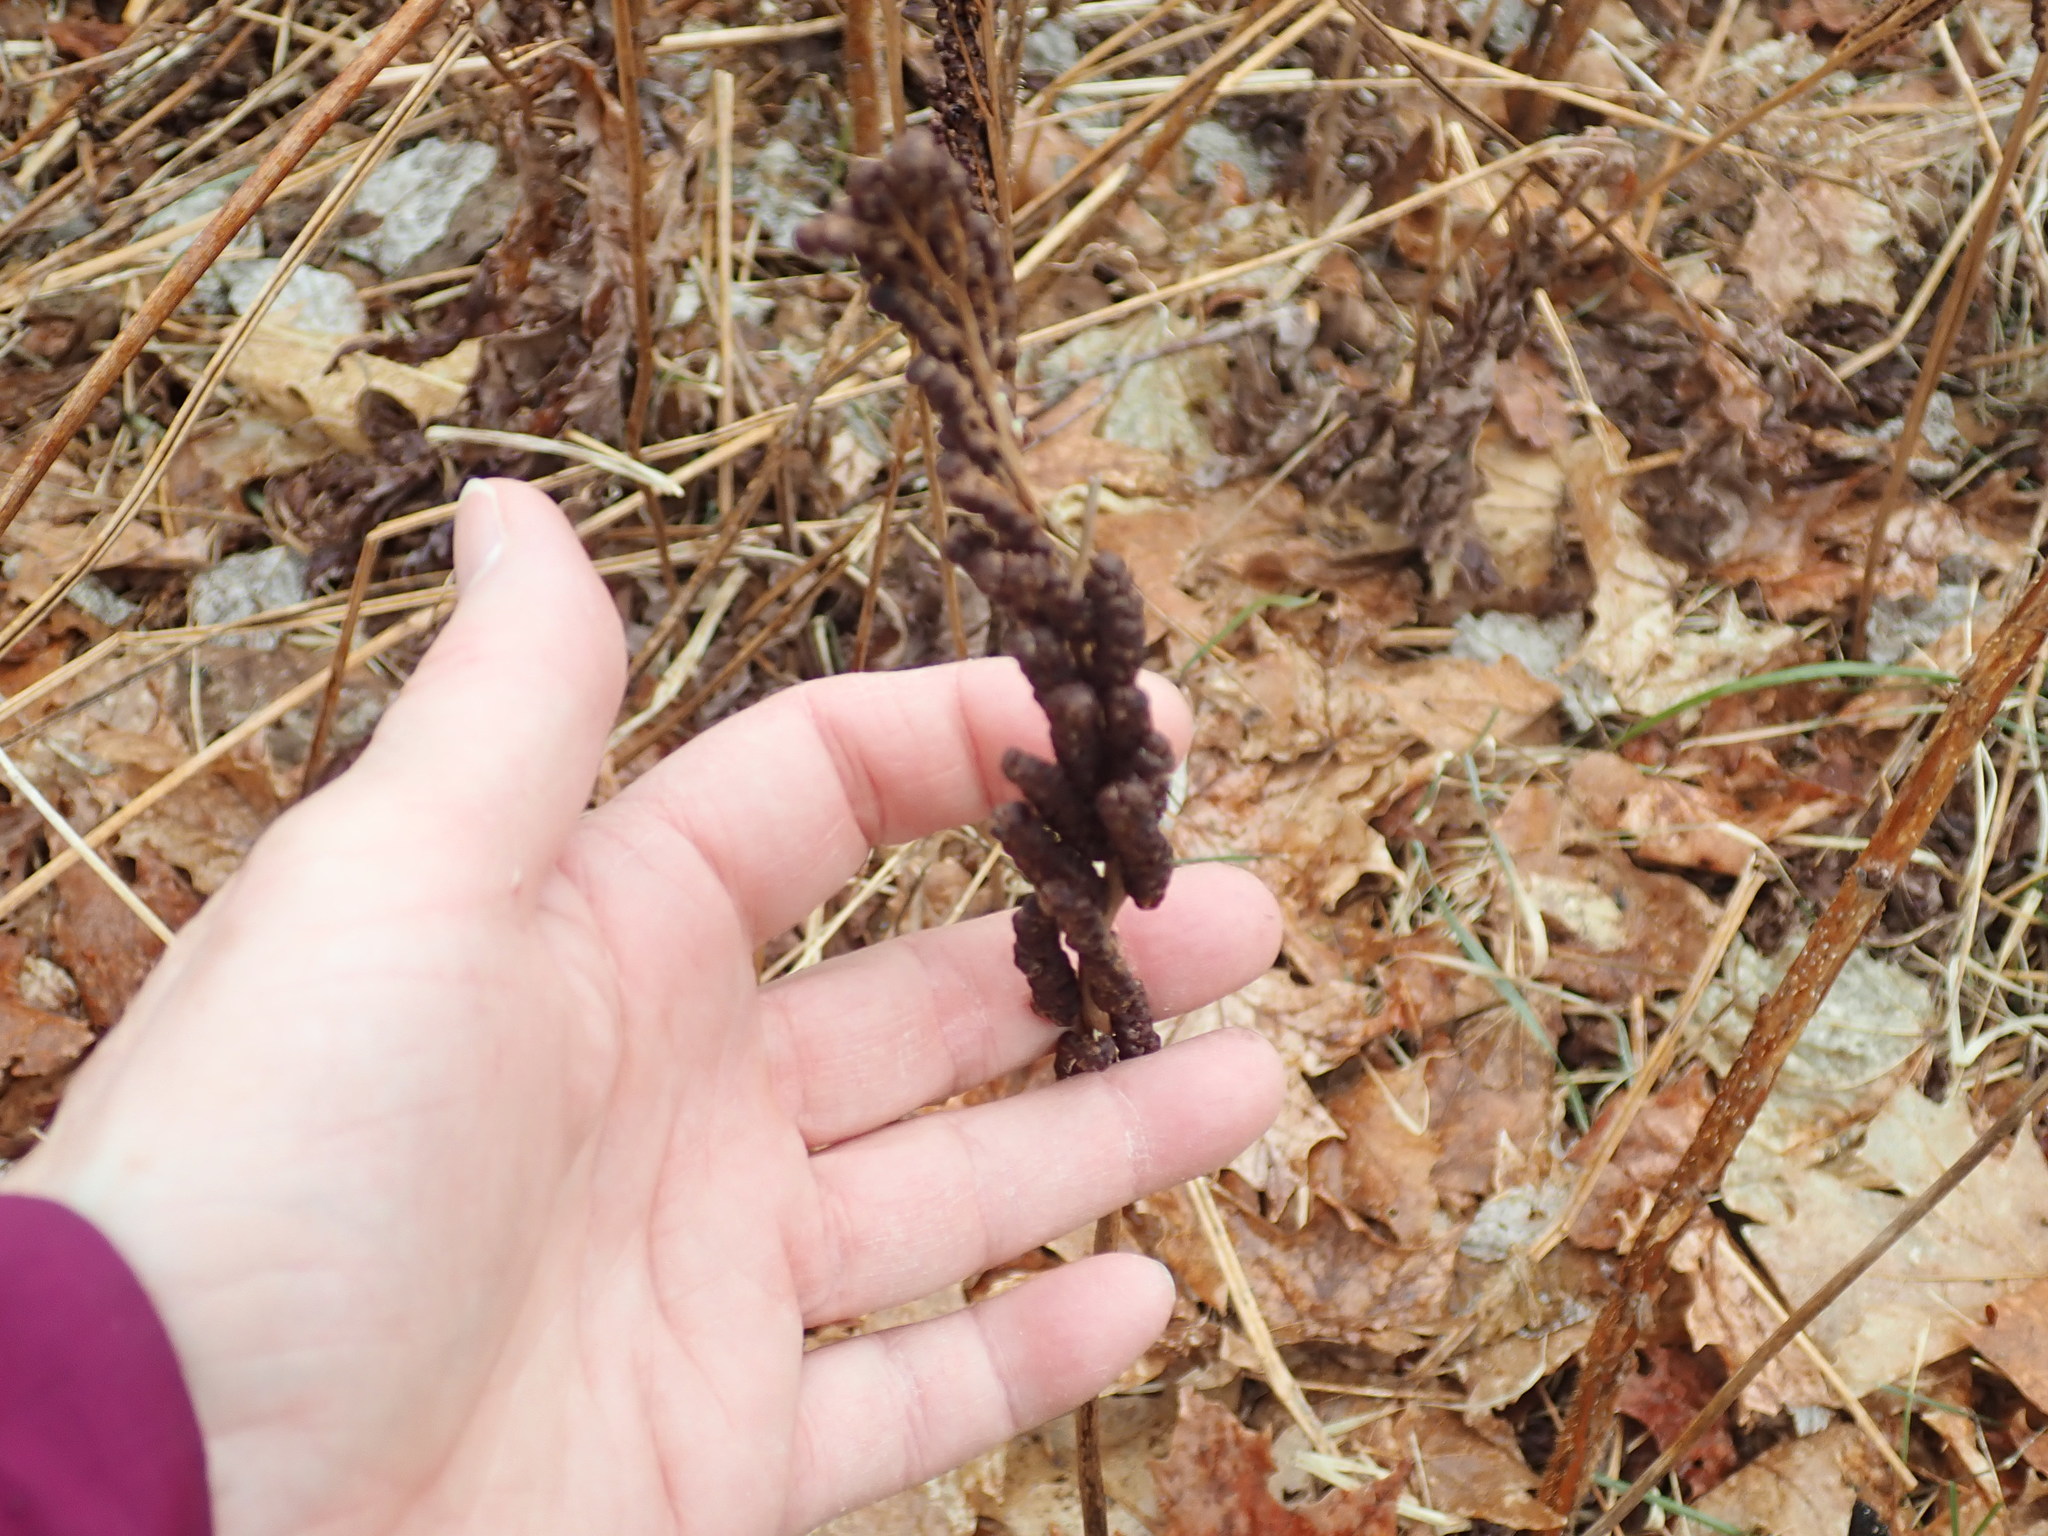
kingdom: Plantae
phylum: Tracheophyta
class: Polypodiopsida
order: Polypodiales
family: Onocleaceae
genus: Onoclea
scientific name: Onoclea sensibilis
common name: Sensitive fern
